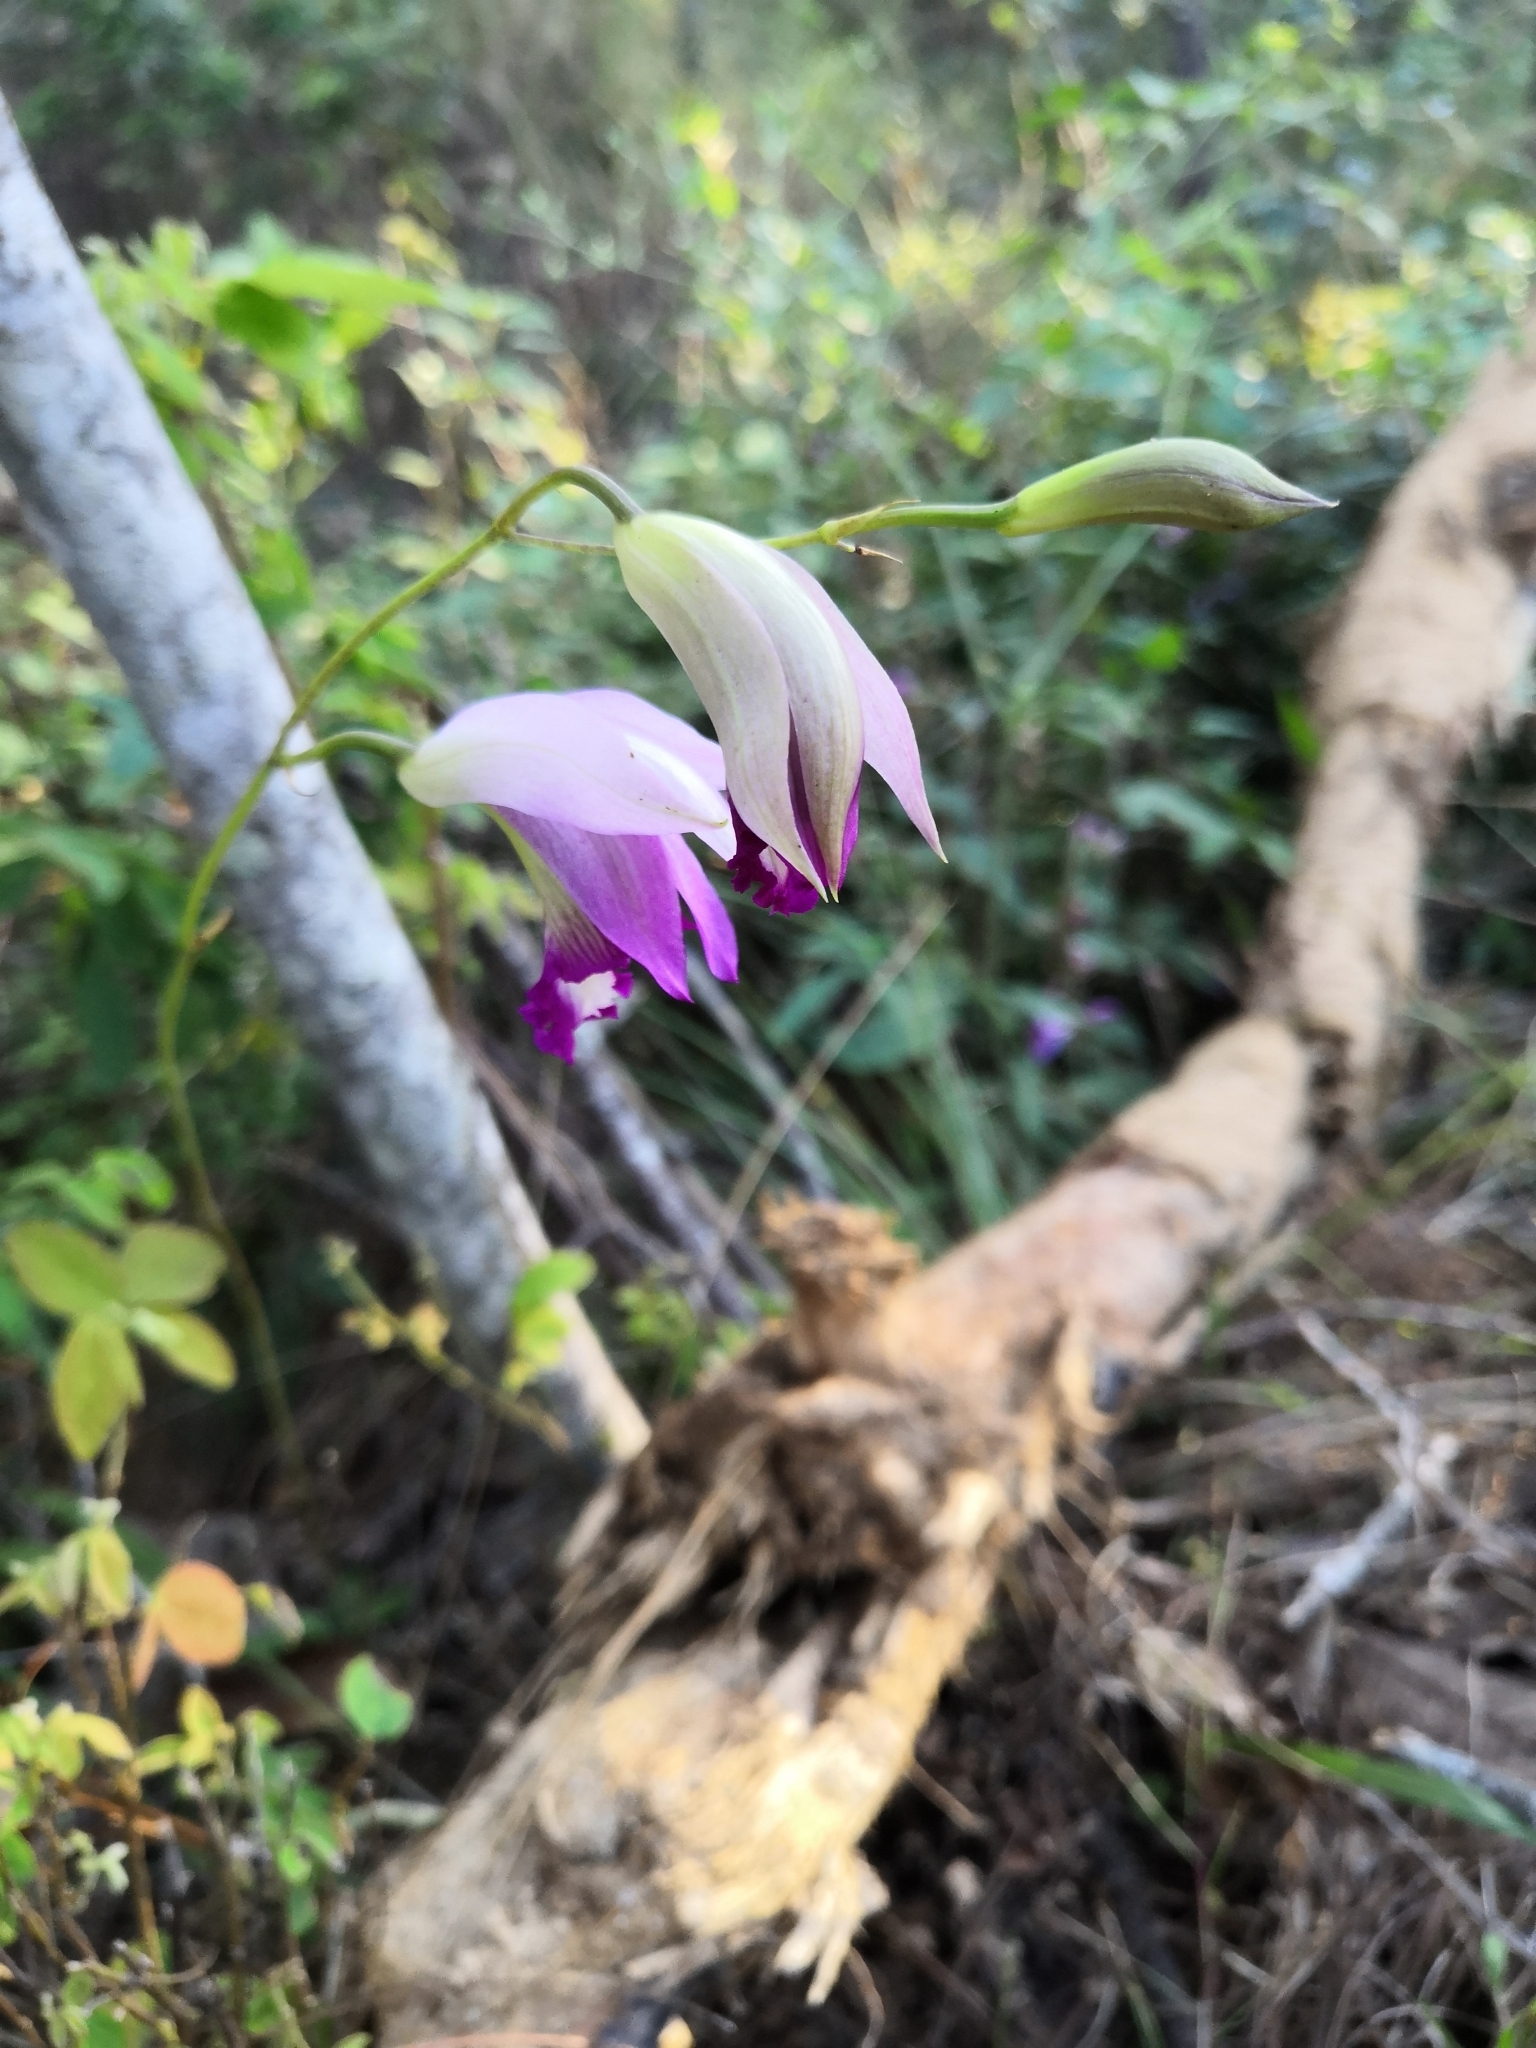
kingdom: Plantae
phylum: Tracheophyta
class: Liliopsida
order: Asparagales
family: Orchidaceae
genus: Bletia
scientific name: Bletia reflexa
